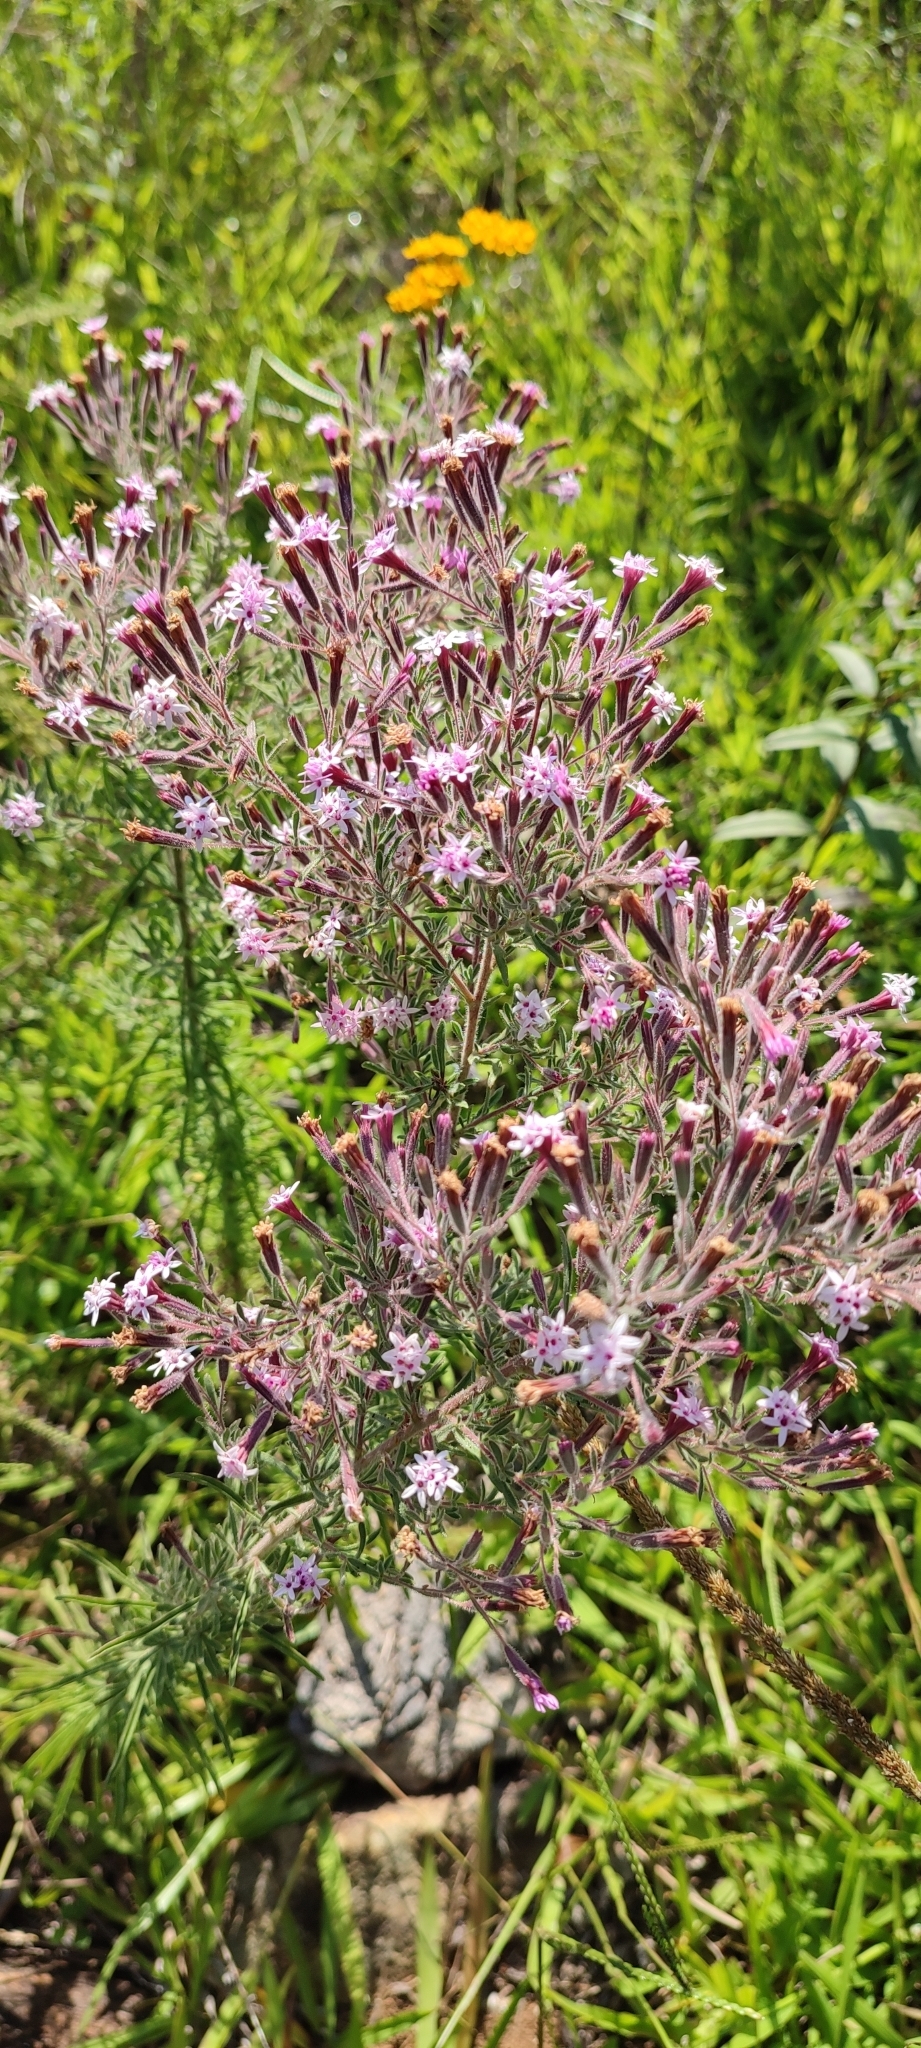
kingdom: Plantae
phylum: Tracheophyta
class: Magnoliopsida
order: Asterales
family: Asteraceae
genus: Stevia
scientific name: Stevia viscida
